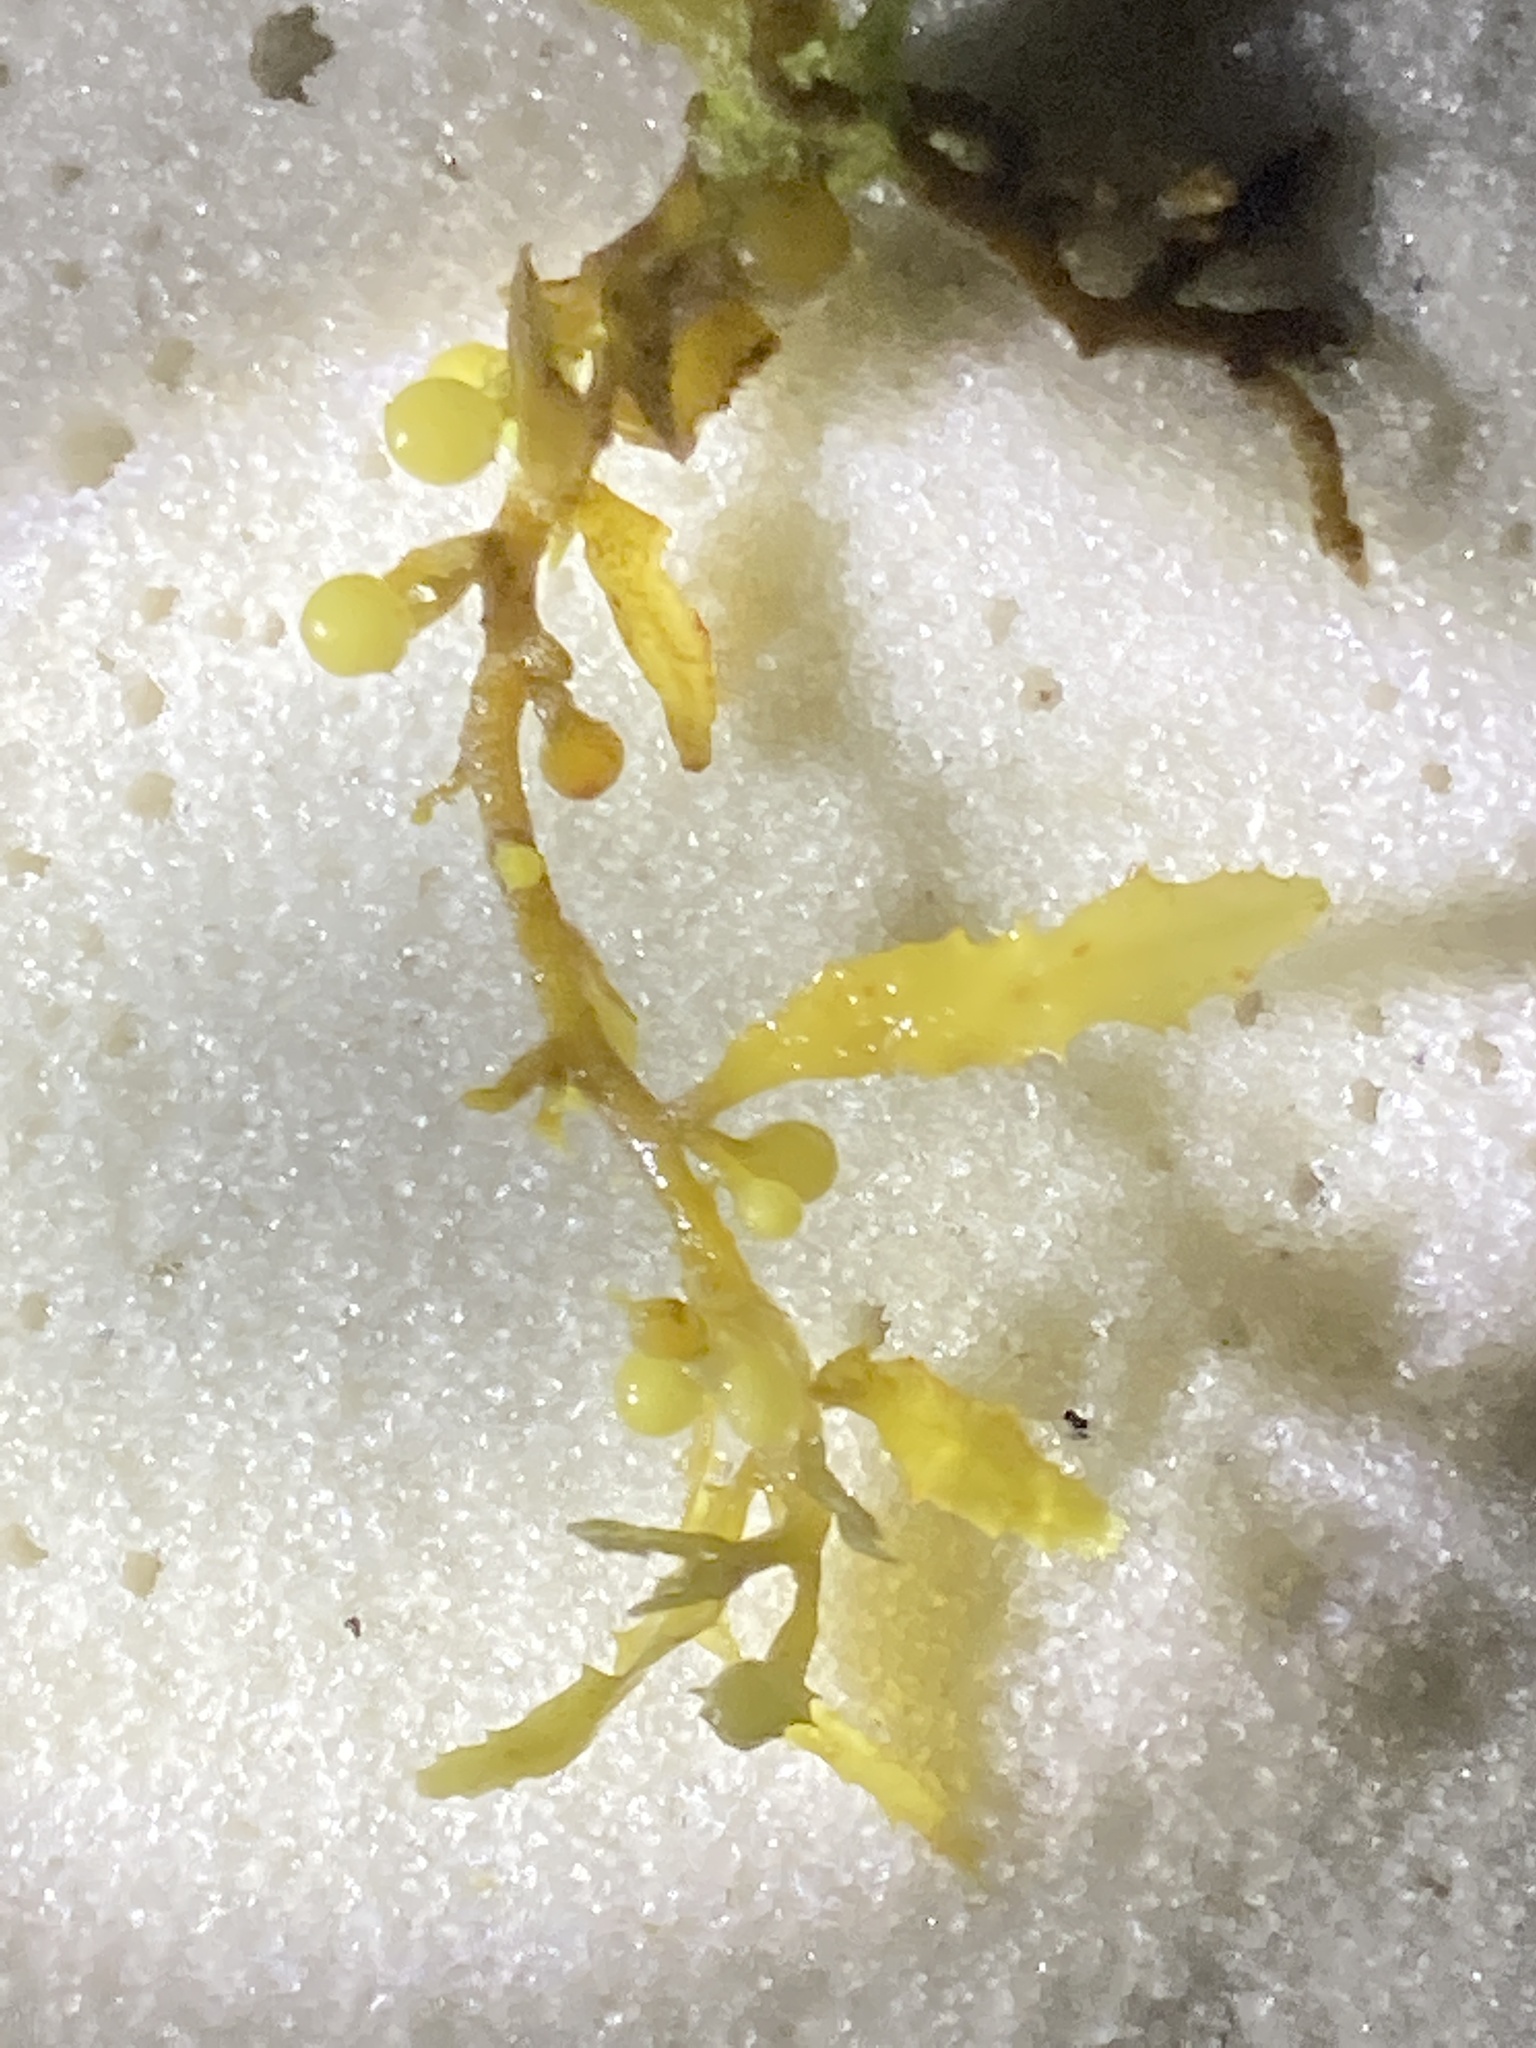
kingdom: Chromista
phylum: Ochrophyta
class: Phaeophyceae
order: Fucales
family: Sargassaceae
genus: Sargassum
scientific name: Sargassum fluitans
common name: Sargassum seaweed
